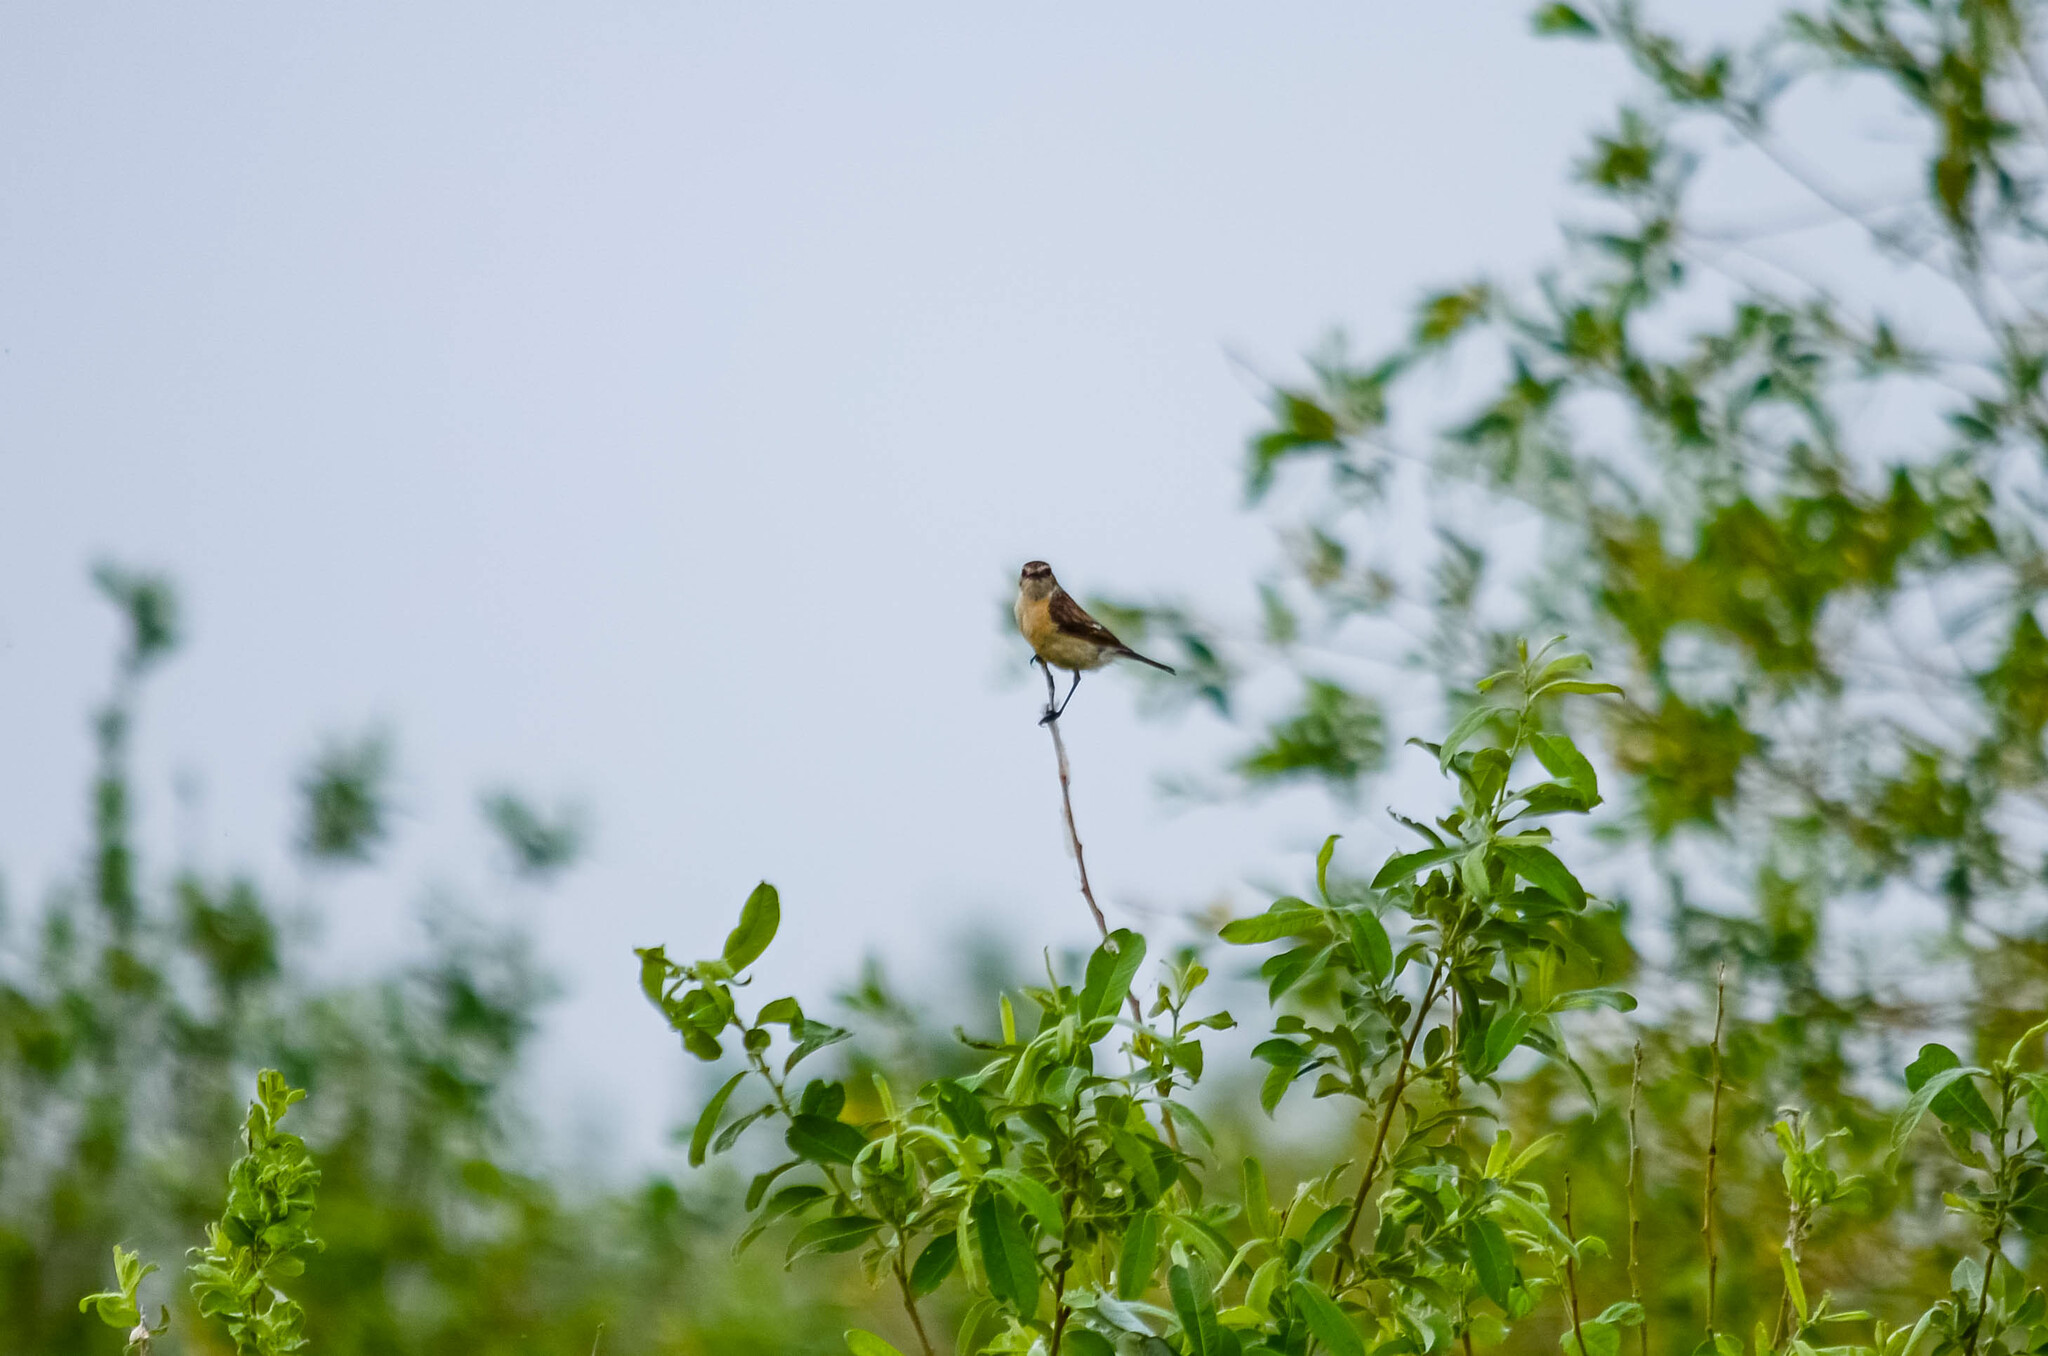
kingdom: Animalia
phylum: Chordata
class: Aves
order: Passeriformes
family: Muscicapidae
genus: Saxicola
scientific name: Saxicola maurus
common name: Siberian stonechat
